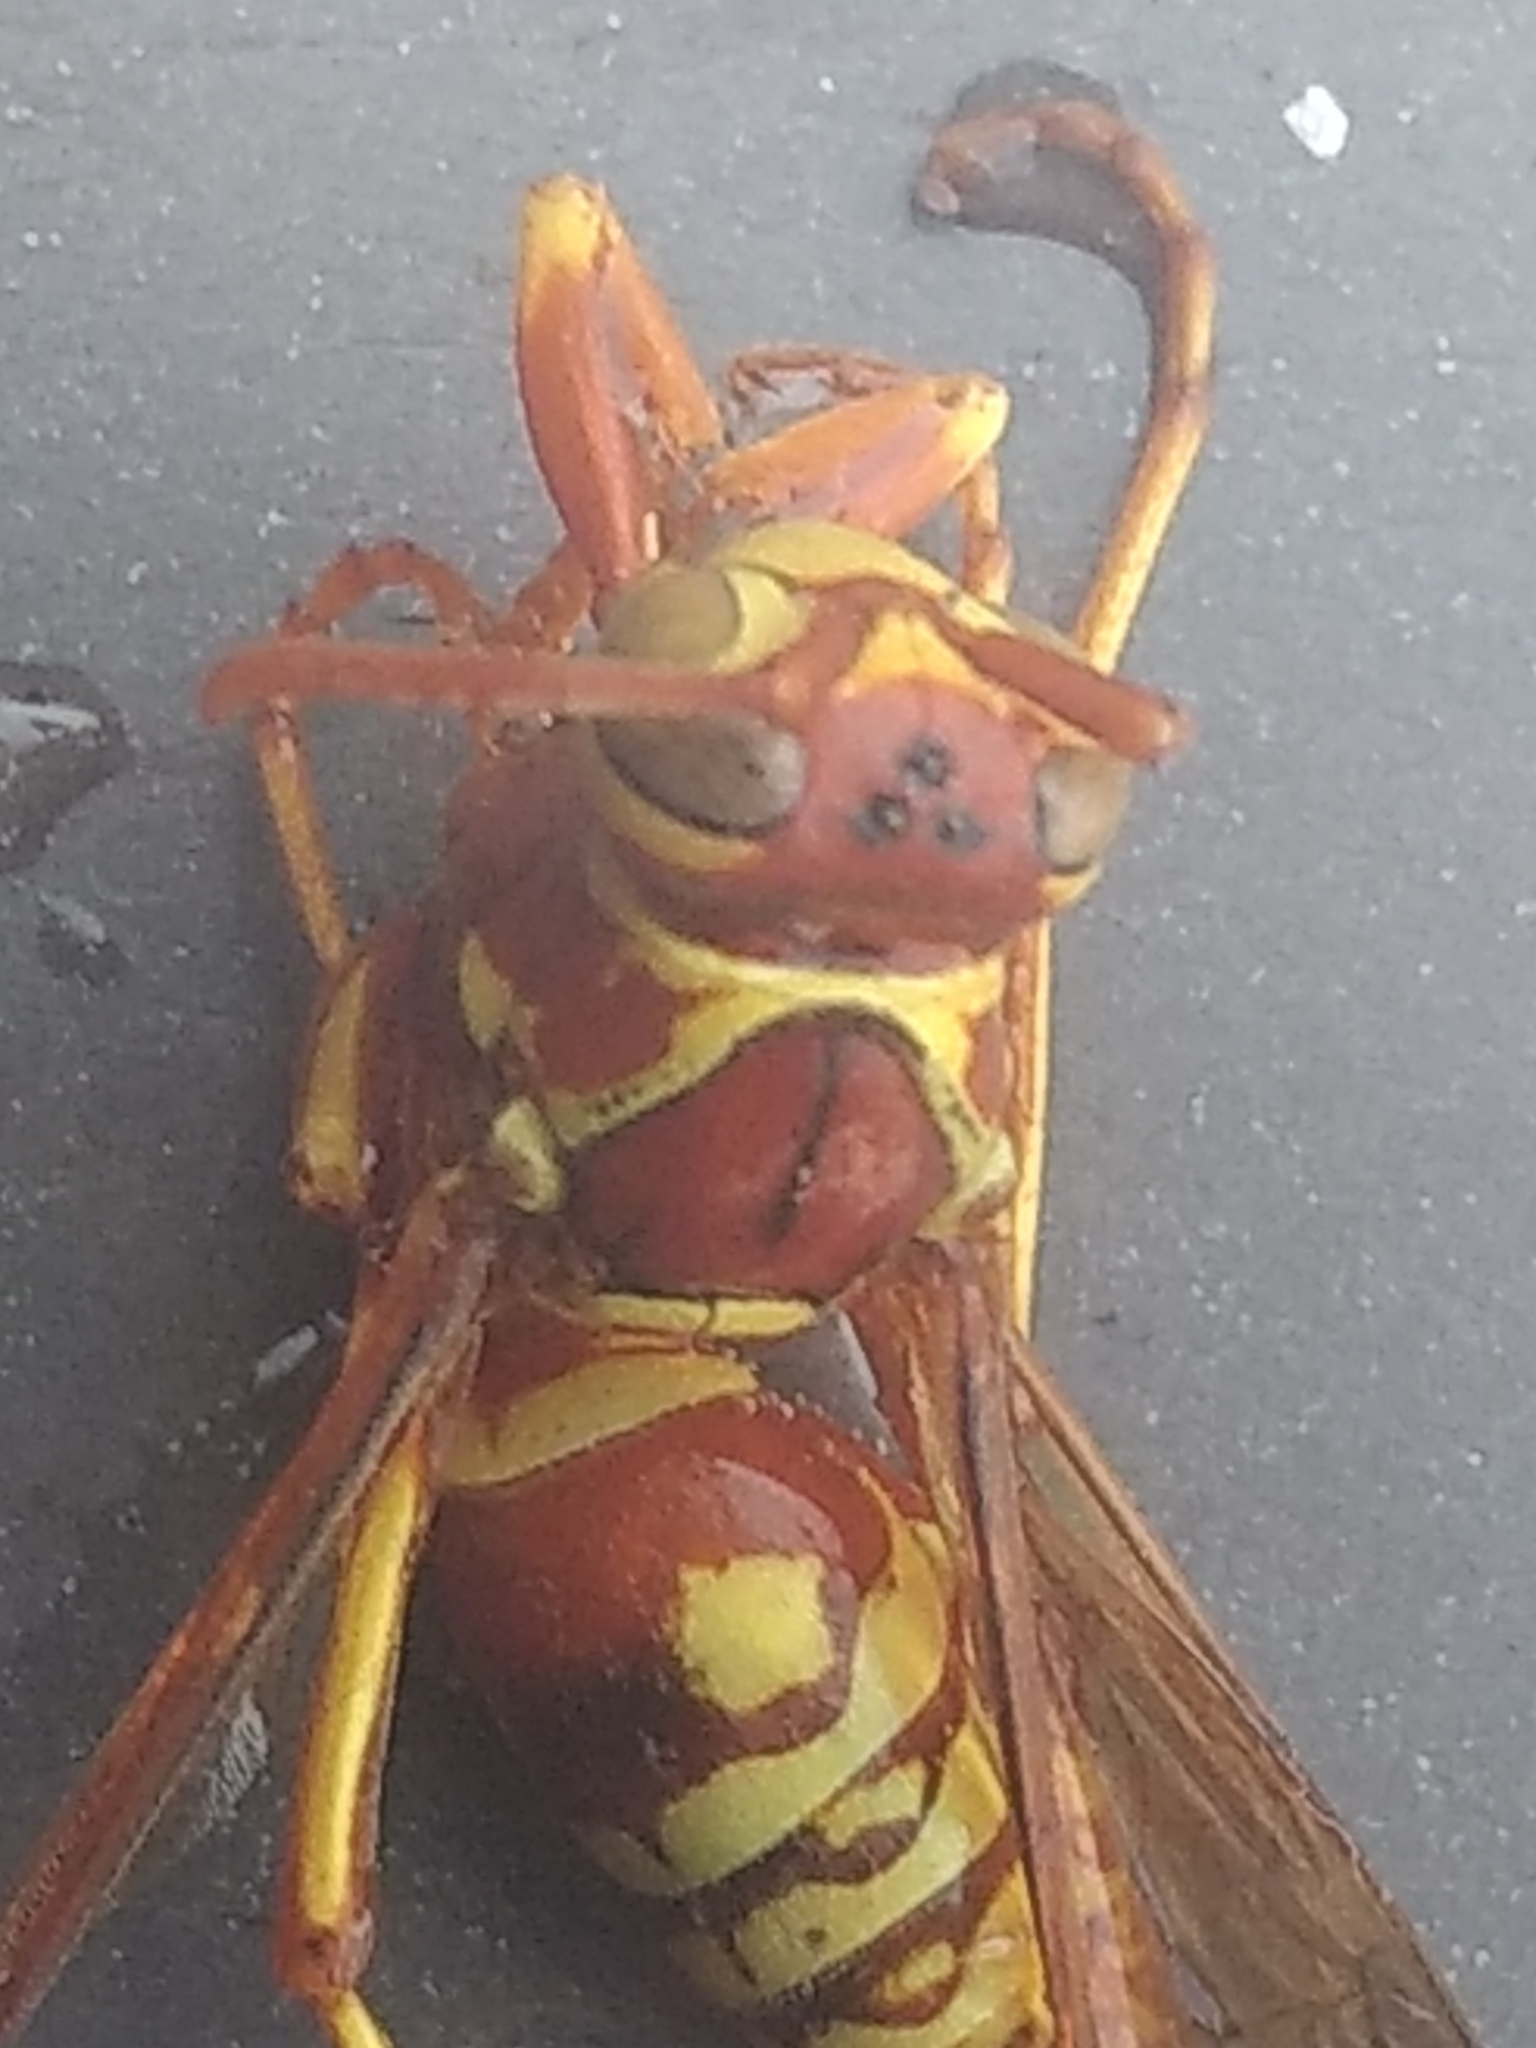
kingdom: Animalia
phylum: Arthropoda
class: Insecta
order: Hymenoptera
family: Eumenidae
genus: Polistes
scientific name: Polistes aurifer
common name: Paper wasp
